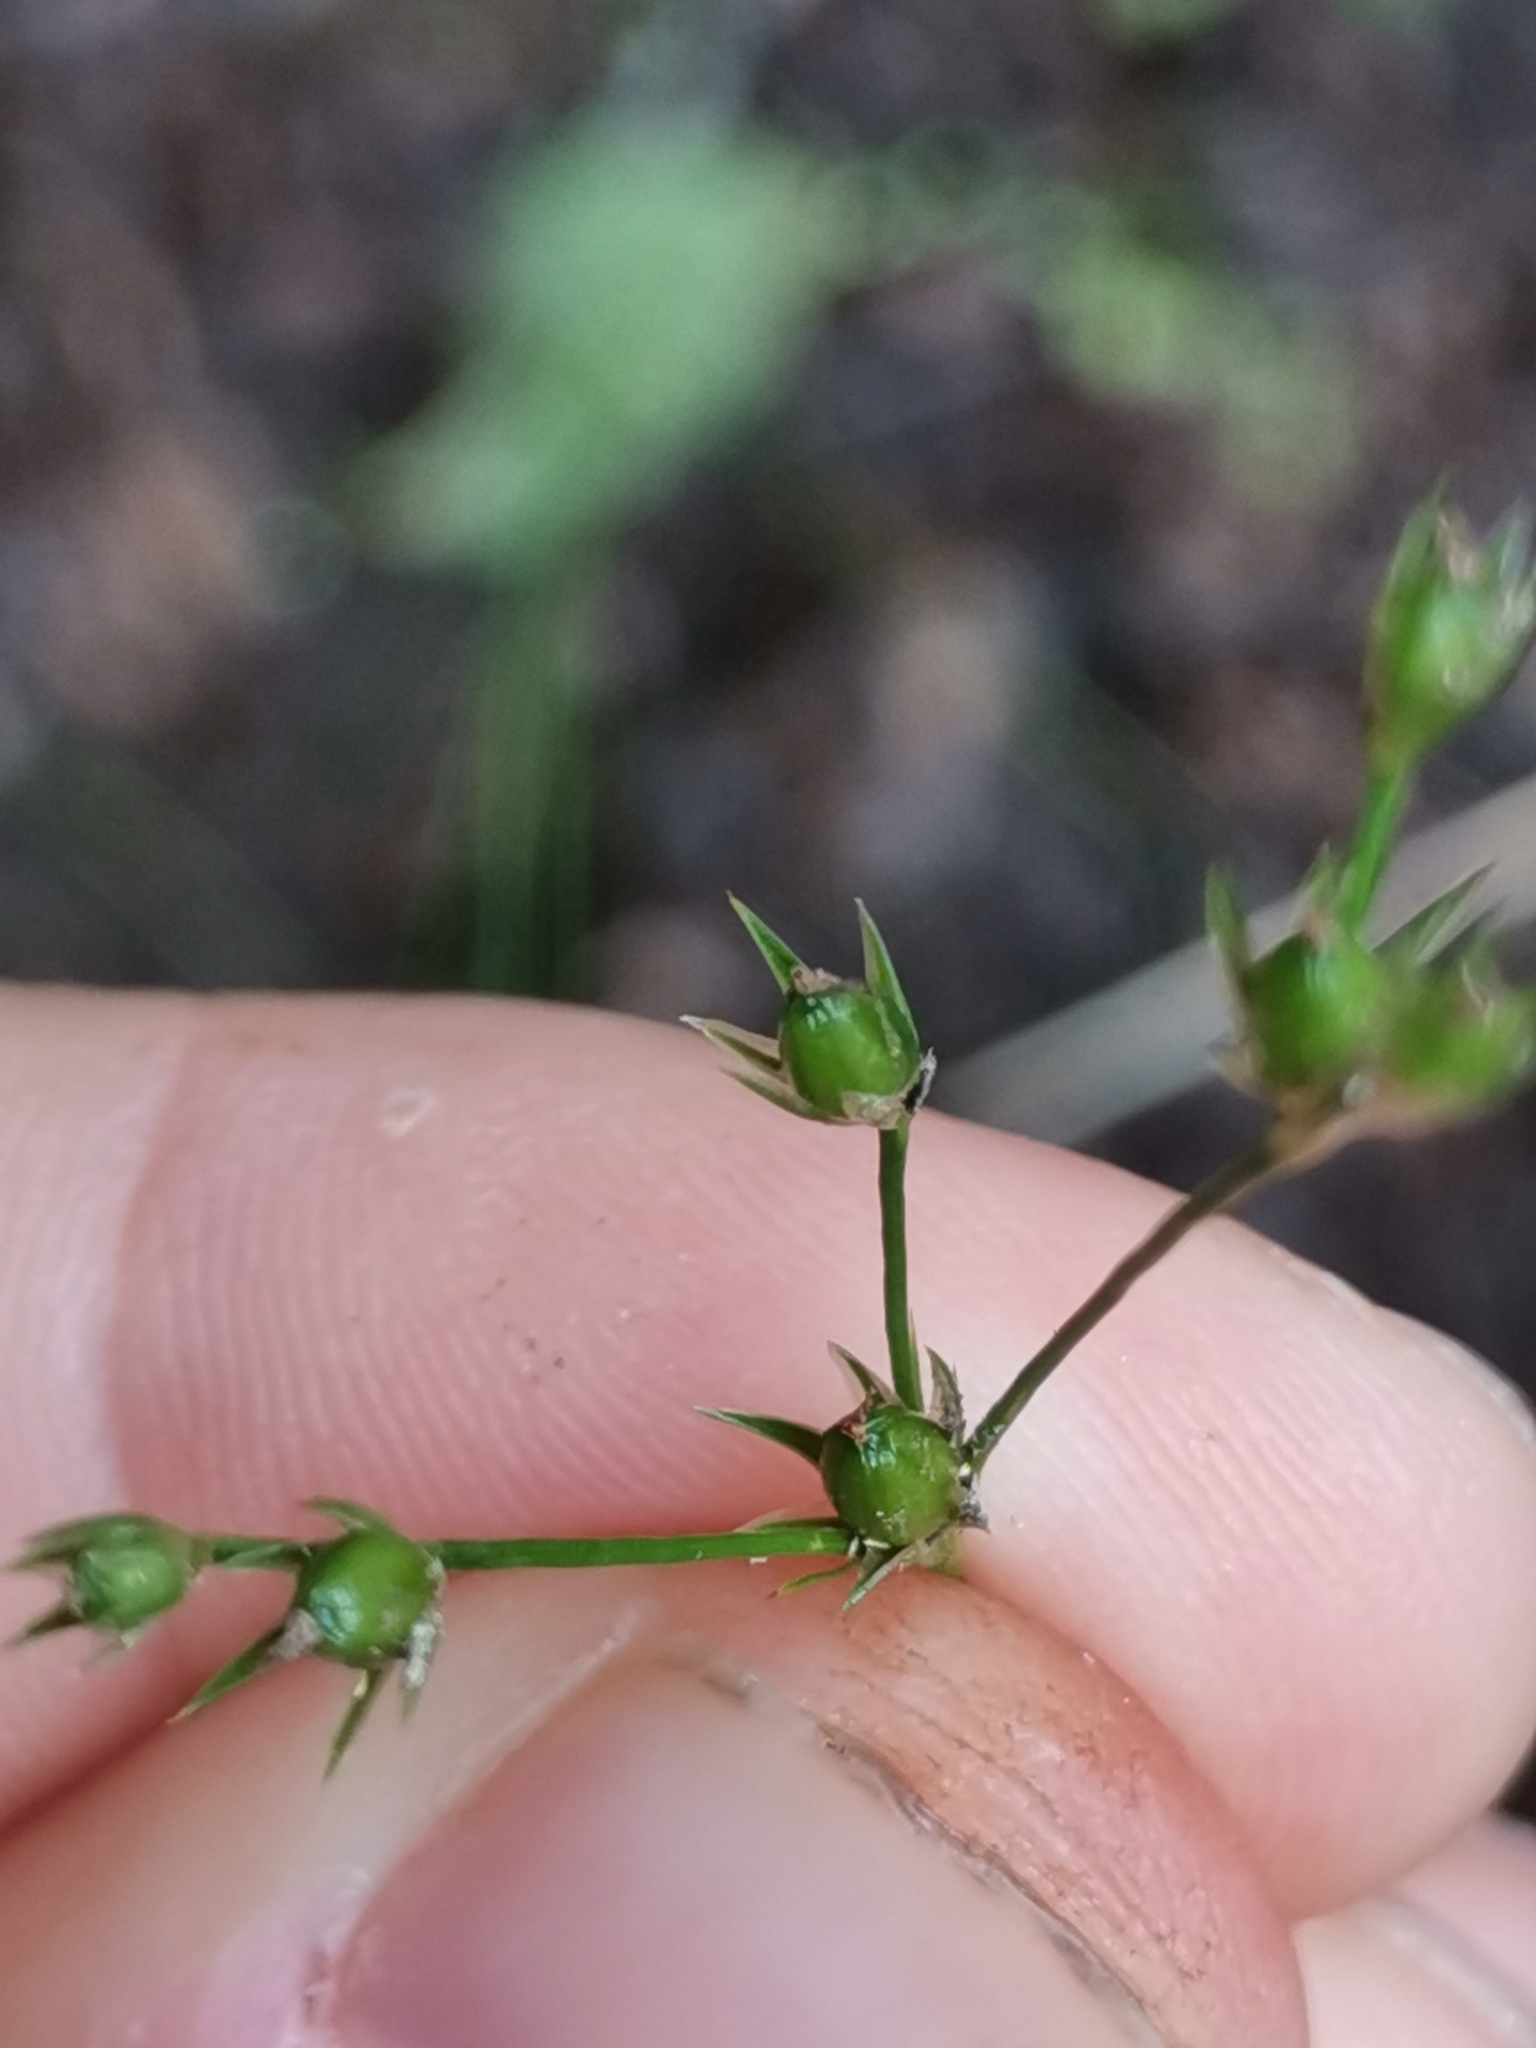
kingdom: Plantae
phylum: Tracheophyta
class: Liliopsida
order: Poales
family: Juncaceae
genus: Juncus
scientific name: Juncus tenuis
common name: Slender rush
